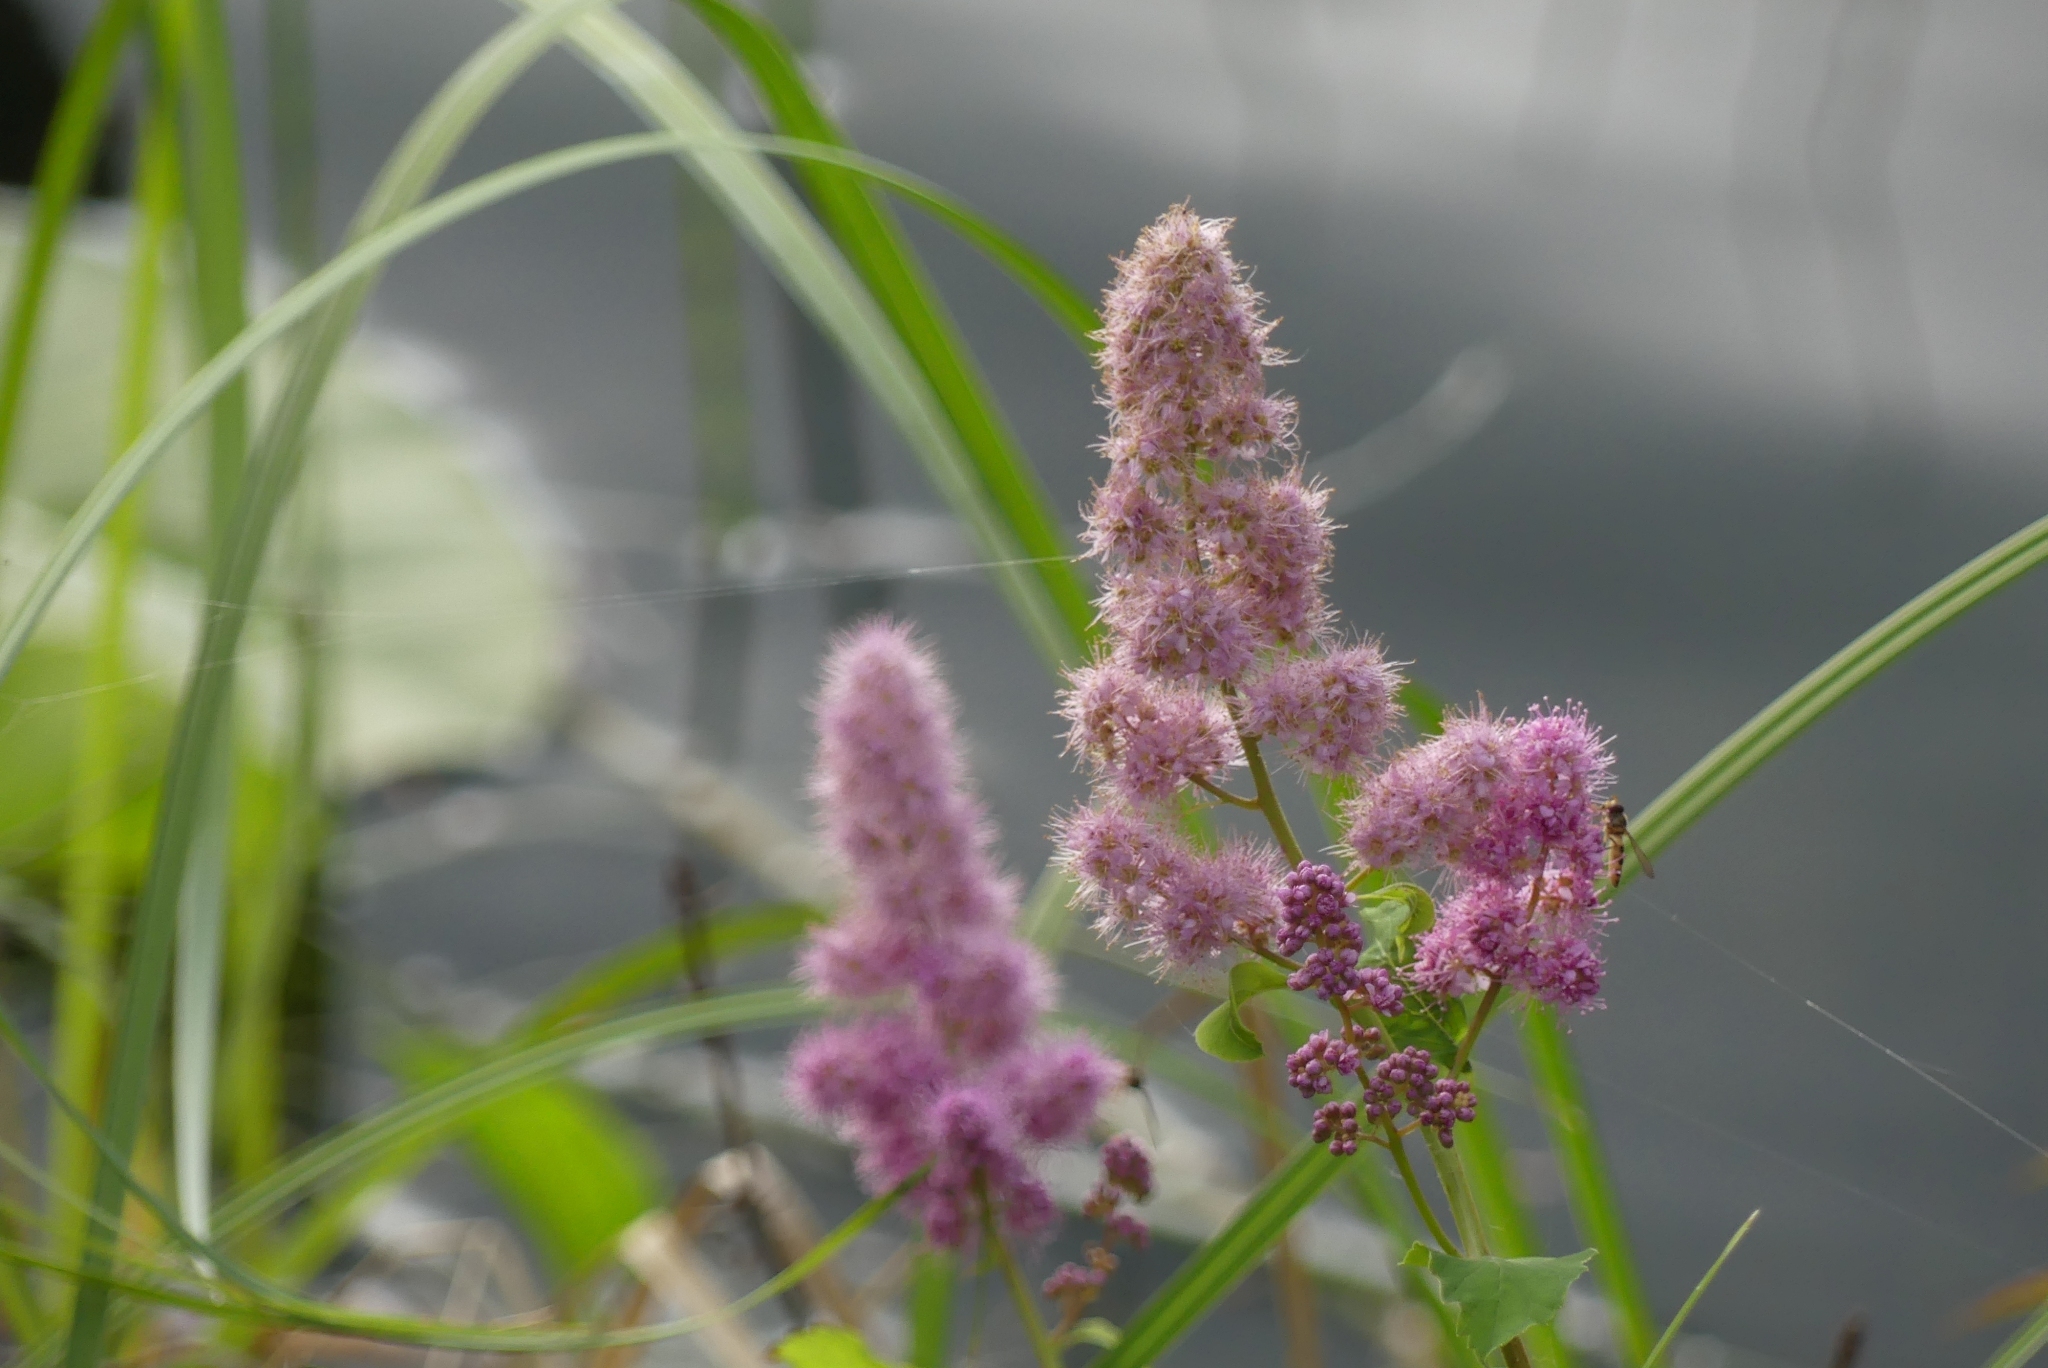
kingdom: Plantae
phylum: Tracheophyta
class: Magnoliopsida
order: Rosales
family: Rosaceae
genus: Spiraea
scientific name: Spiraea douglasii
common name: Steeplebush
